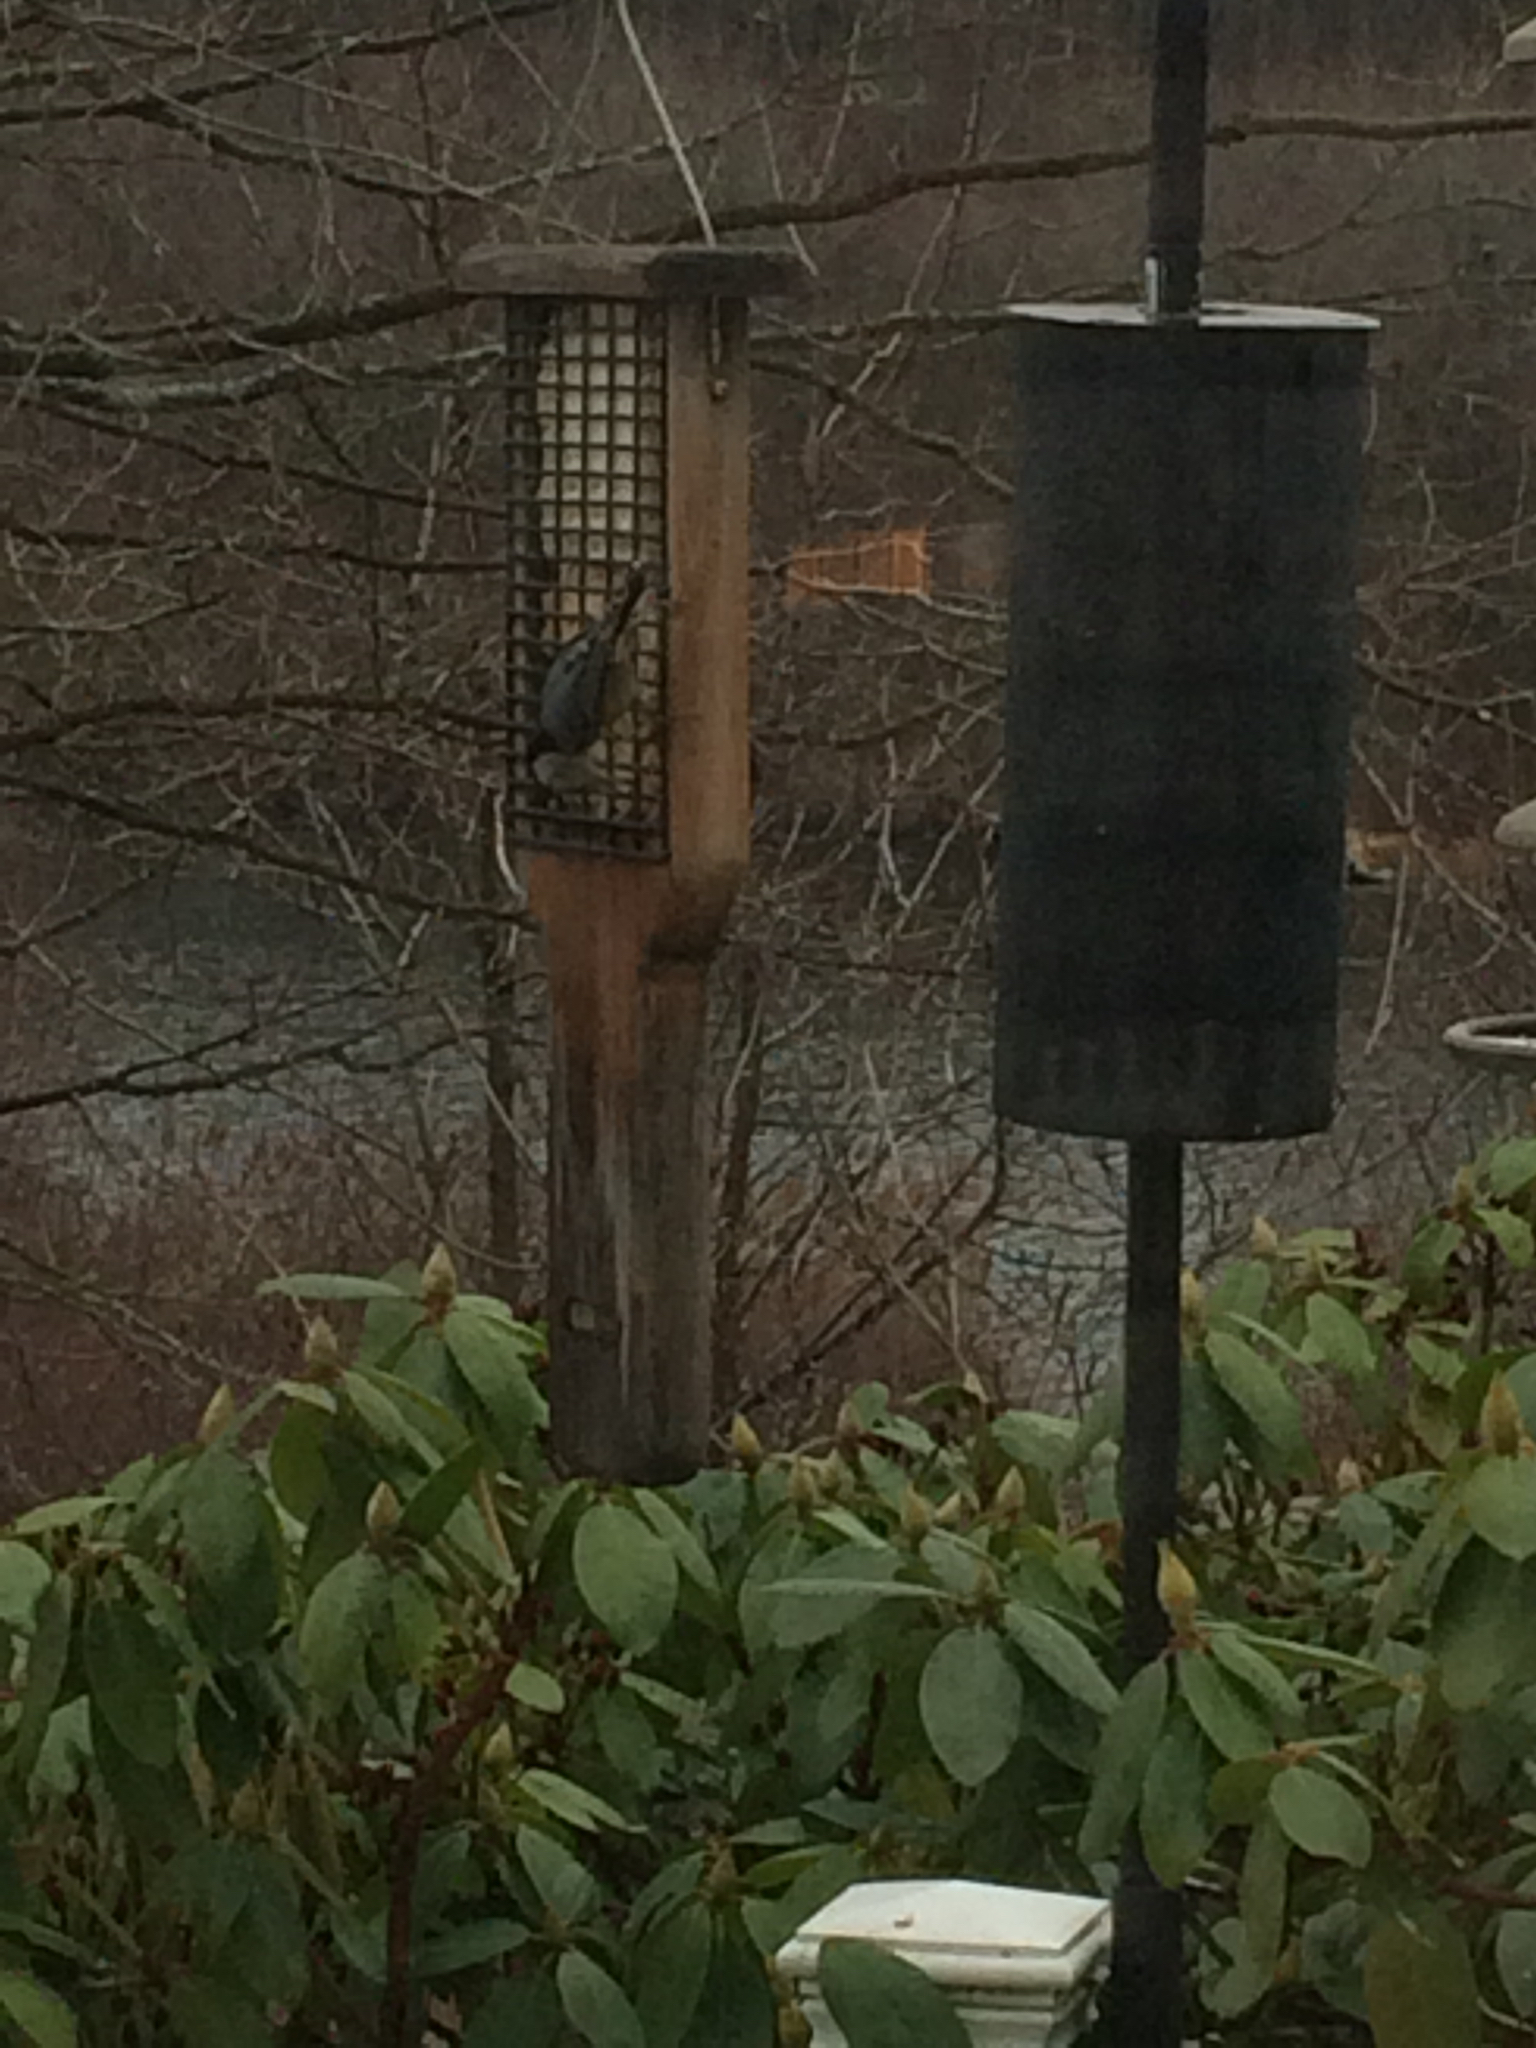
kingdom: Animalia
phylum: Chordata
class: Aves
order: Passeriformes
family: Sittidae
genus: Sitta
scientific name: Sitta carolinensis
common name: White-breasted nuthatch
